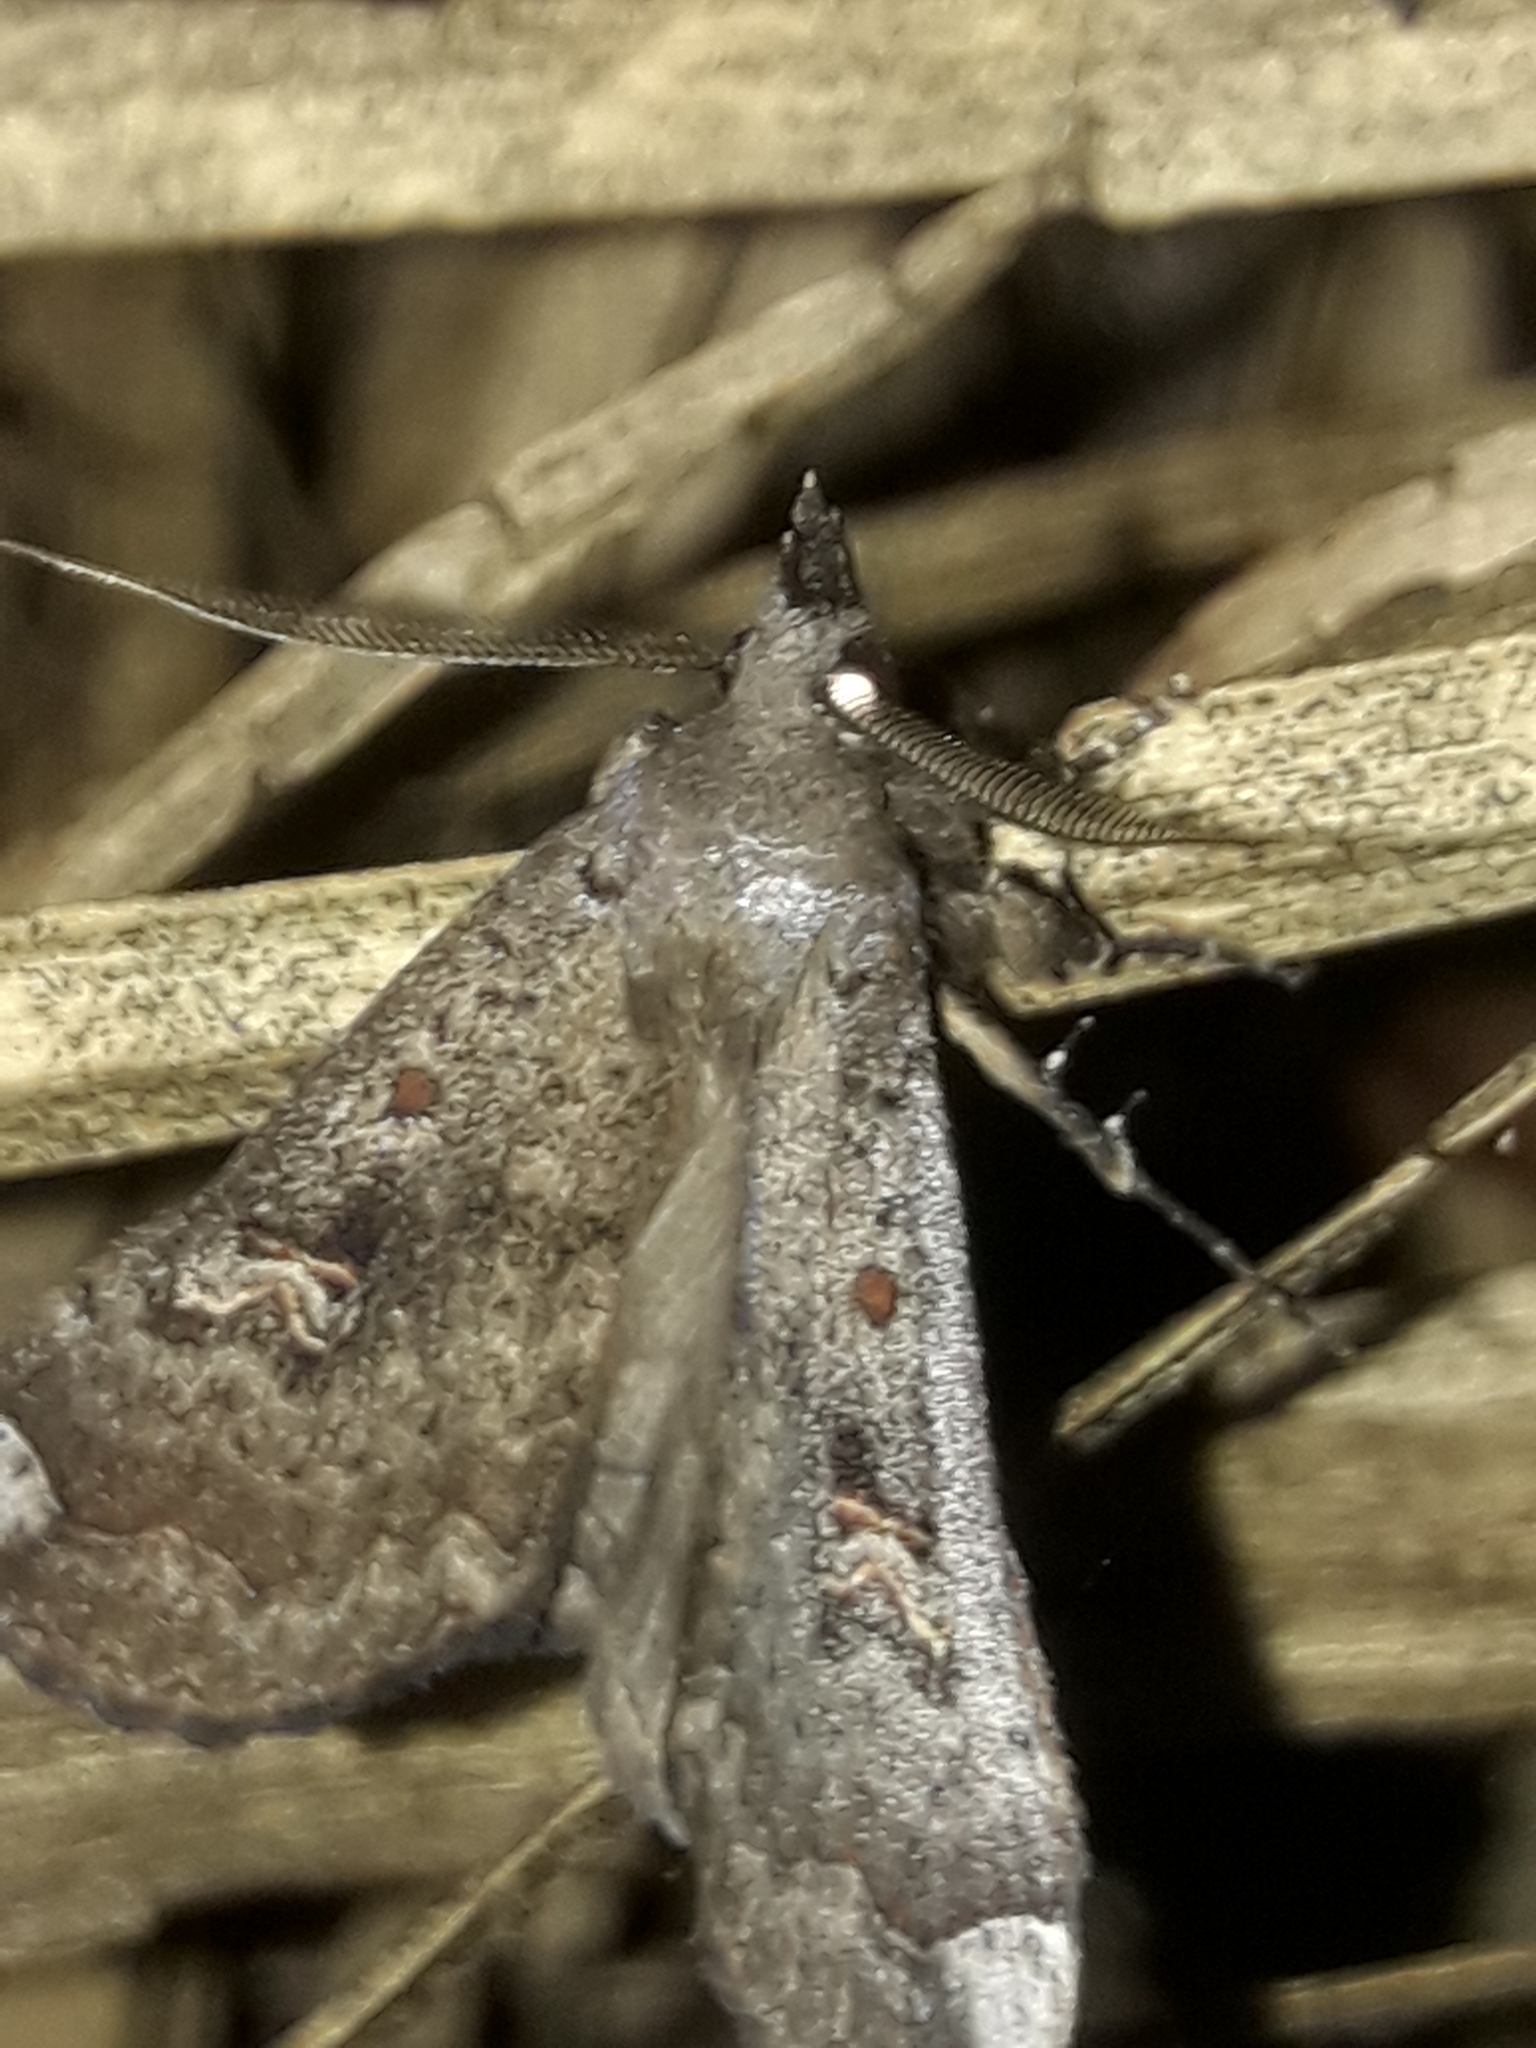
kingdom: Animalia
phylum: Arthropoda
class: Insecta
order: Lepidoptera
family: Erebidae
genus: Rhapsa
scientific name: Rhapsa scotosialis
